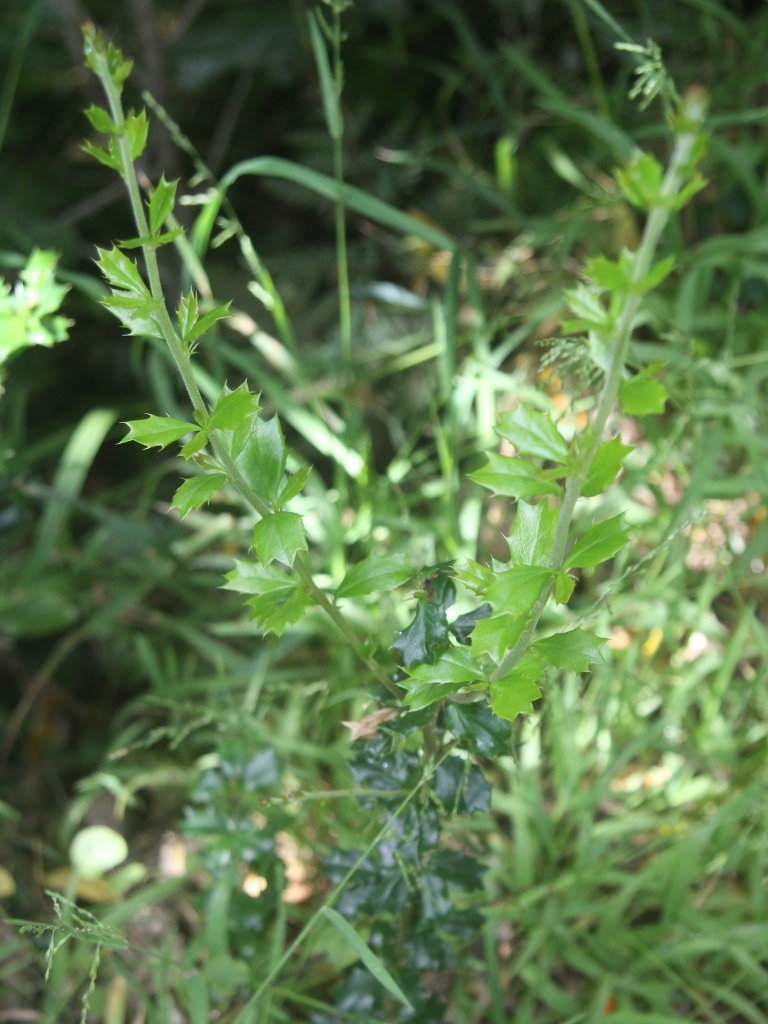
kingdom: Plantae
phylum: Tracheophyta
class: Magnoliopsida
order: Ranunculales
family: Berberidaceae
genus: Berberis
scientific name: Berberis darwinii
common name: Darwin's barberry
